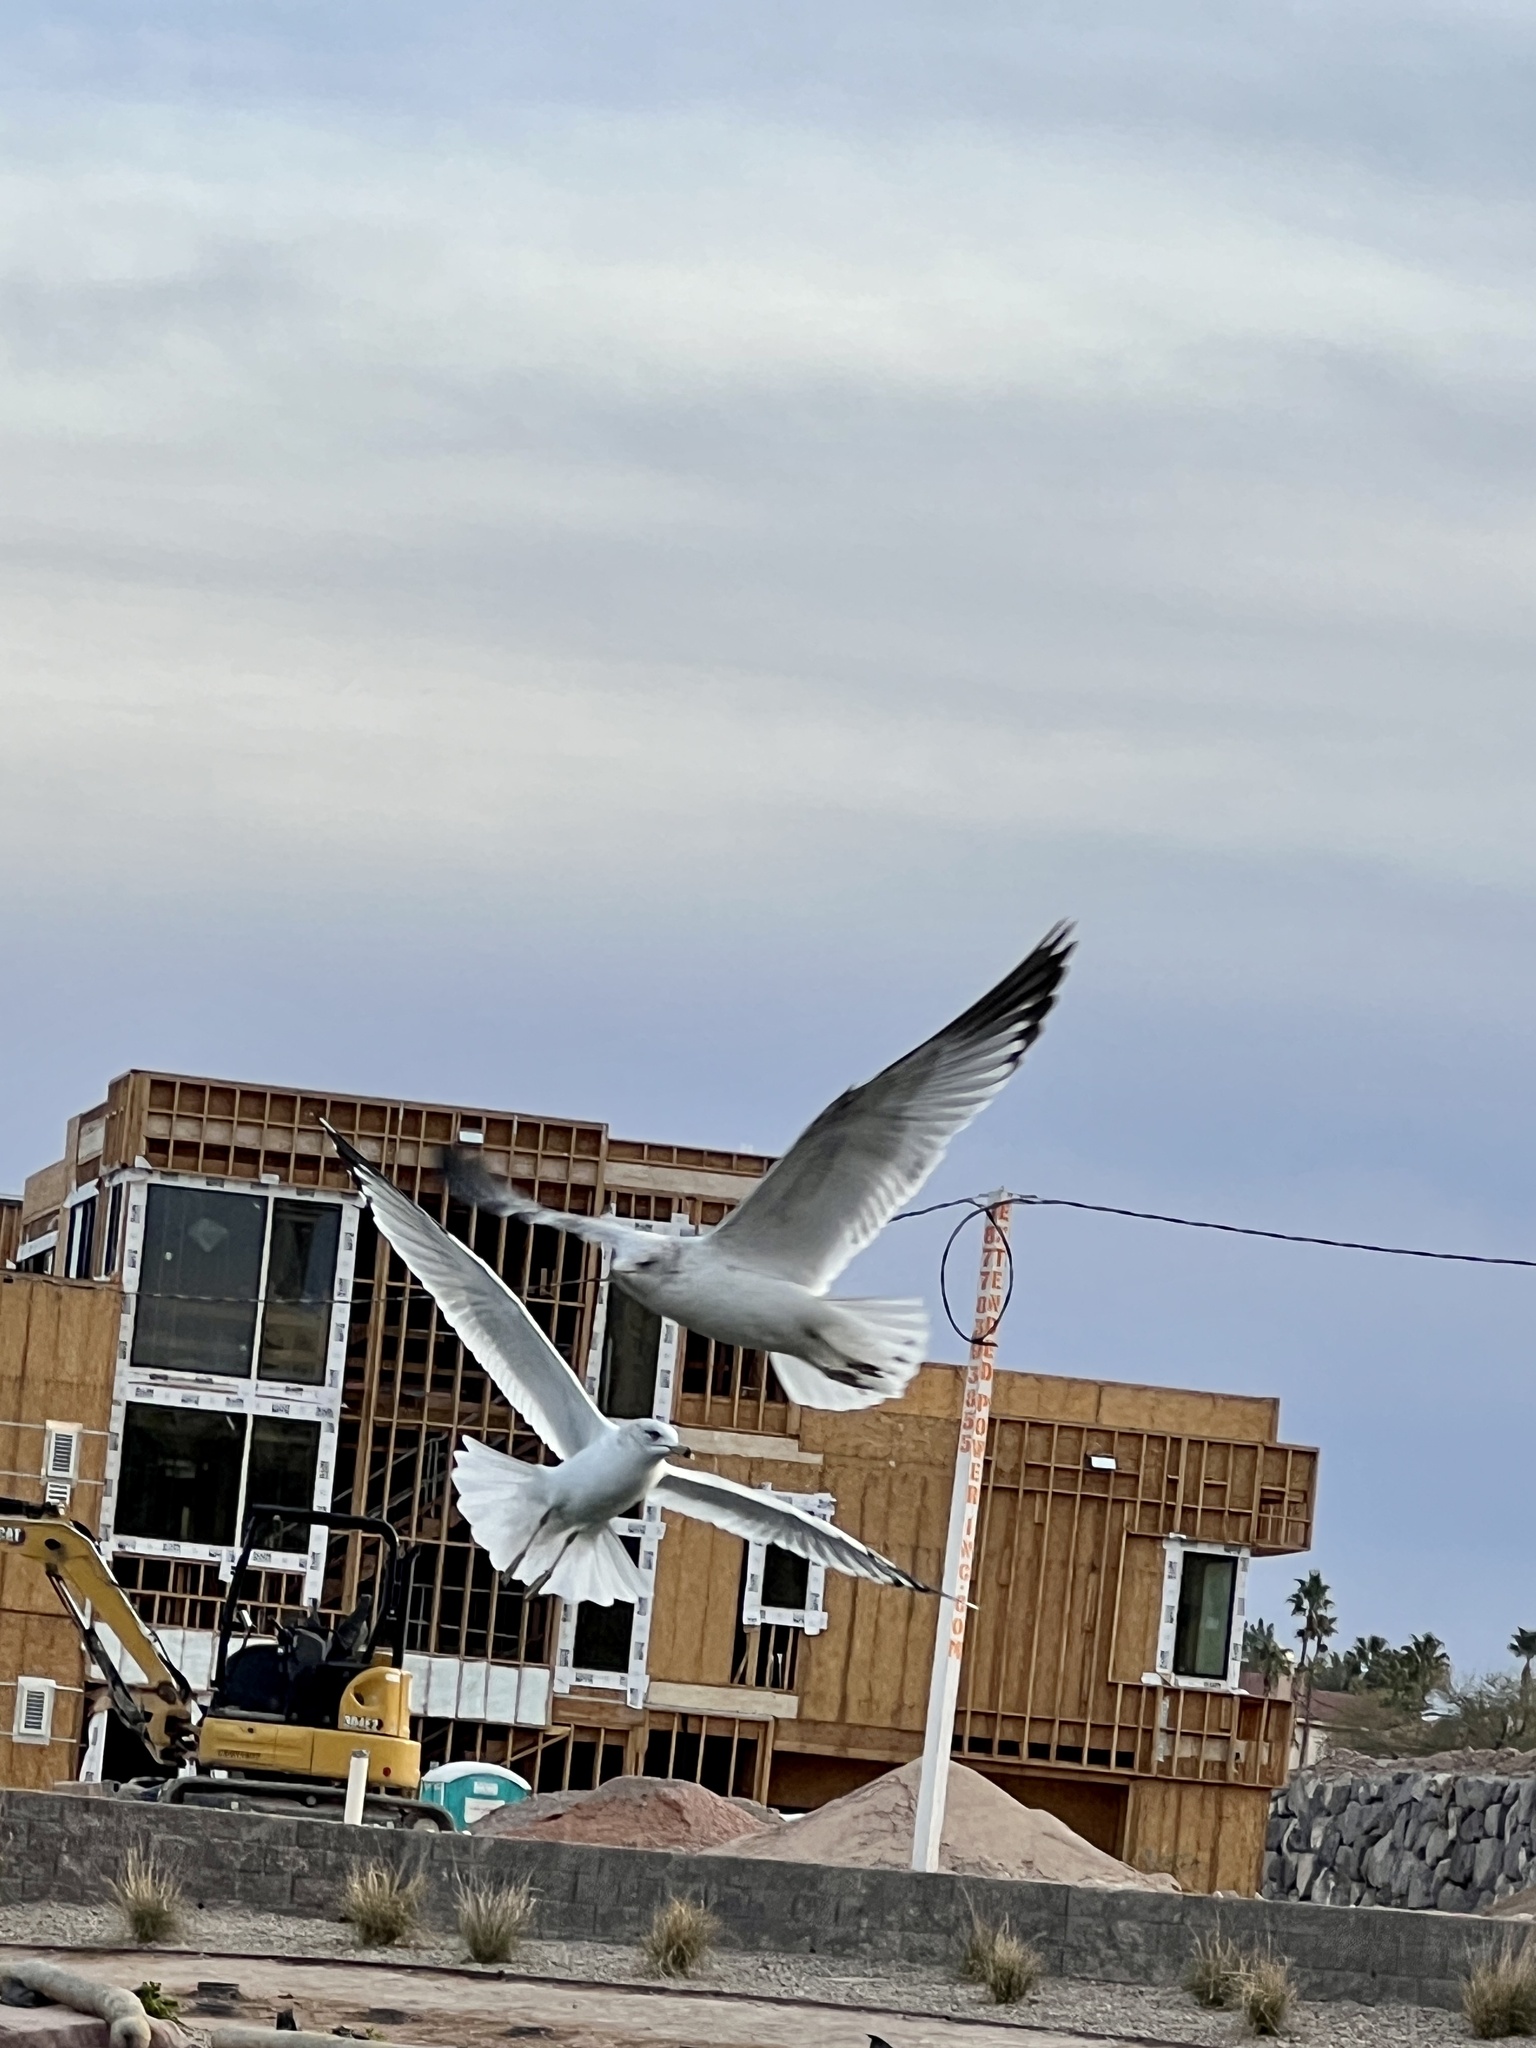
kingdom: Animalia
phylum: Chordata
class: Aves
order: Charadriiformes
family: Laridae
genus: Larus
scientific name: Larus delawarensis
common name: Ring-billed gull
